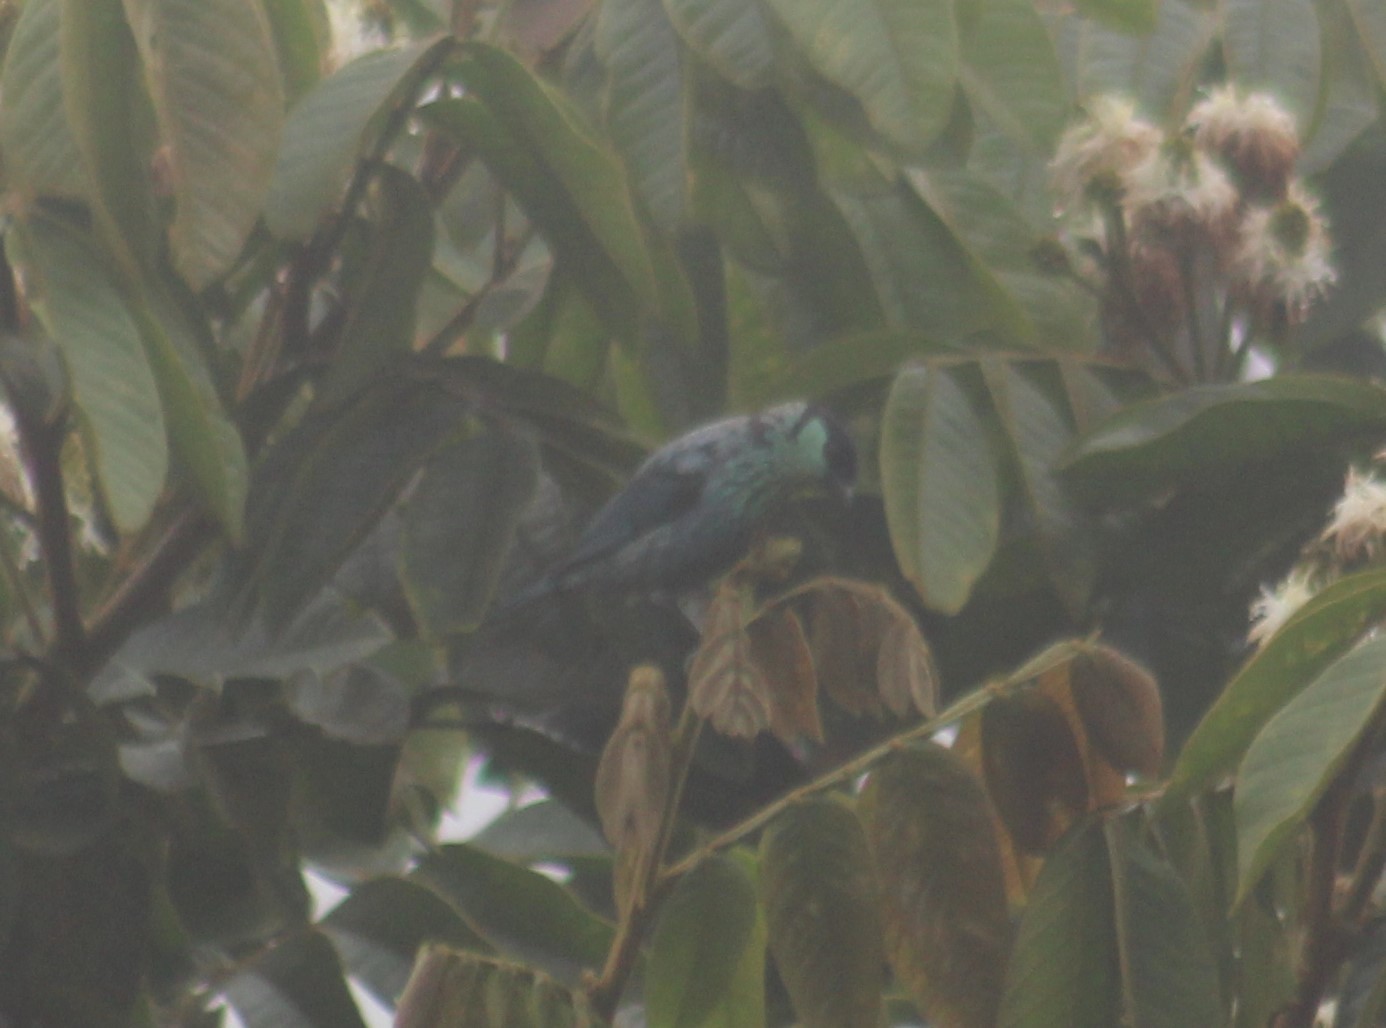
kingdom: Animalia
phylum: Chordata
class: Aves
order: Passeriformes
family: Thraupidae
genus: Stilpnia
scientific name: Stilpnia heinei
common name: Black-capped tanager
